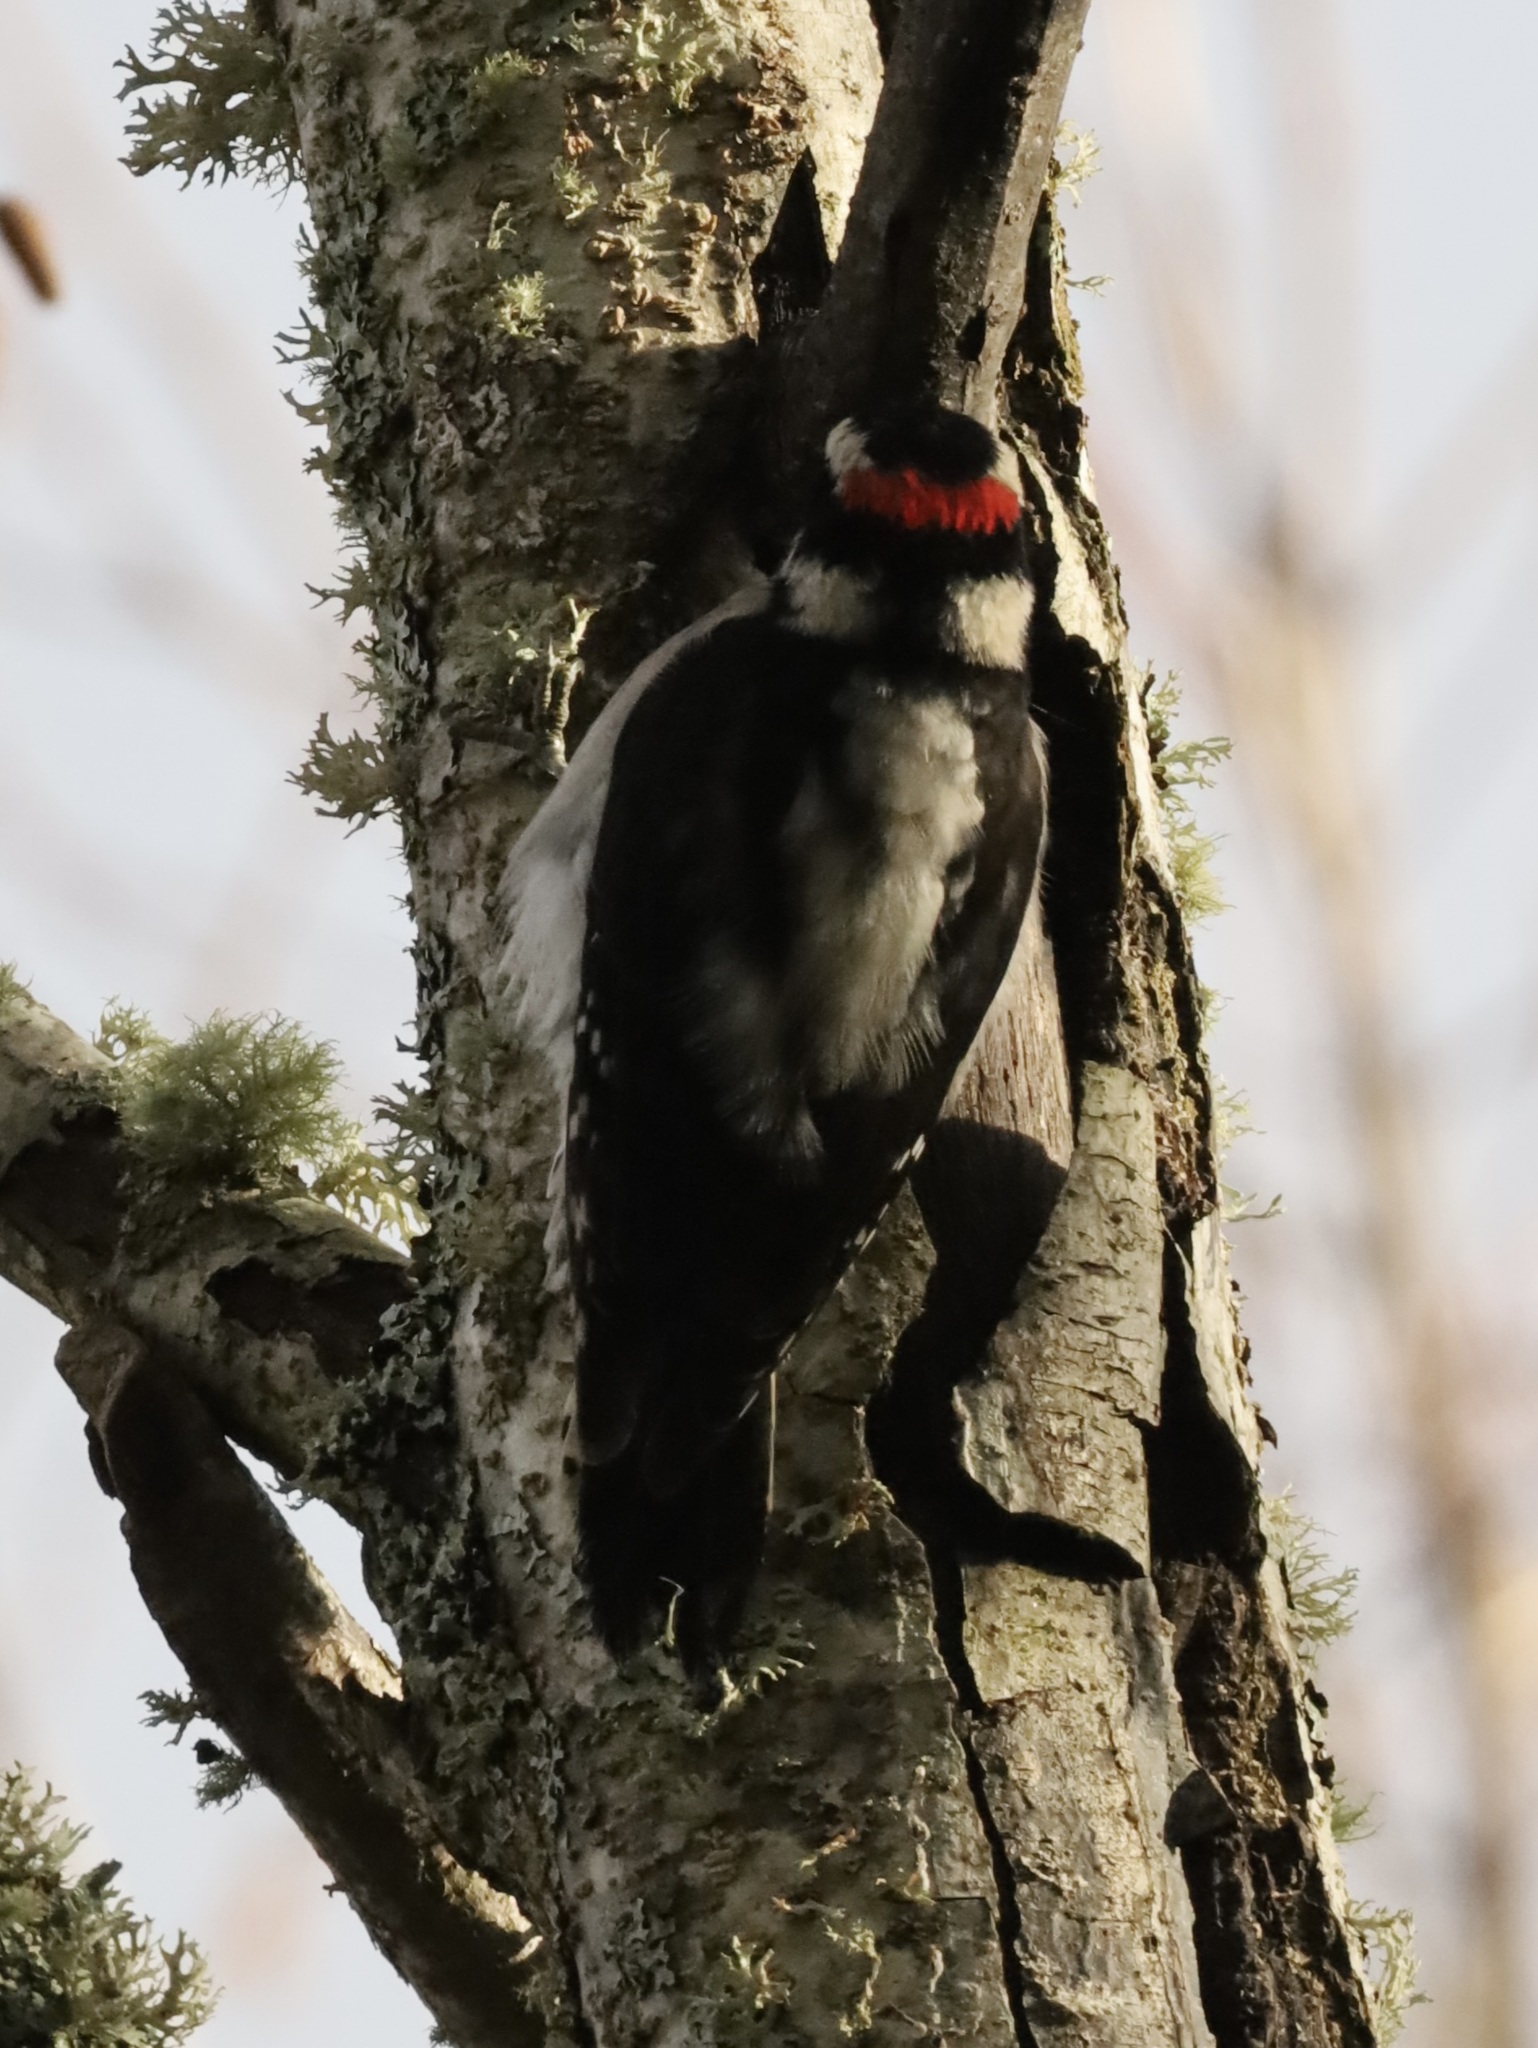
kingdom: Animalia
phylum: Chordata
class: Aves
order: Piciformes
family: Picidae
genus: Dryobates
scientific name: Dryobates pubescens
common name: Downy woodpecker
